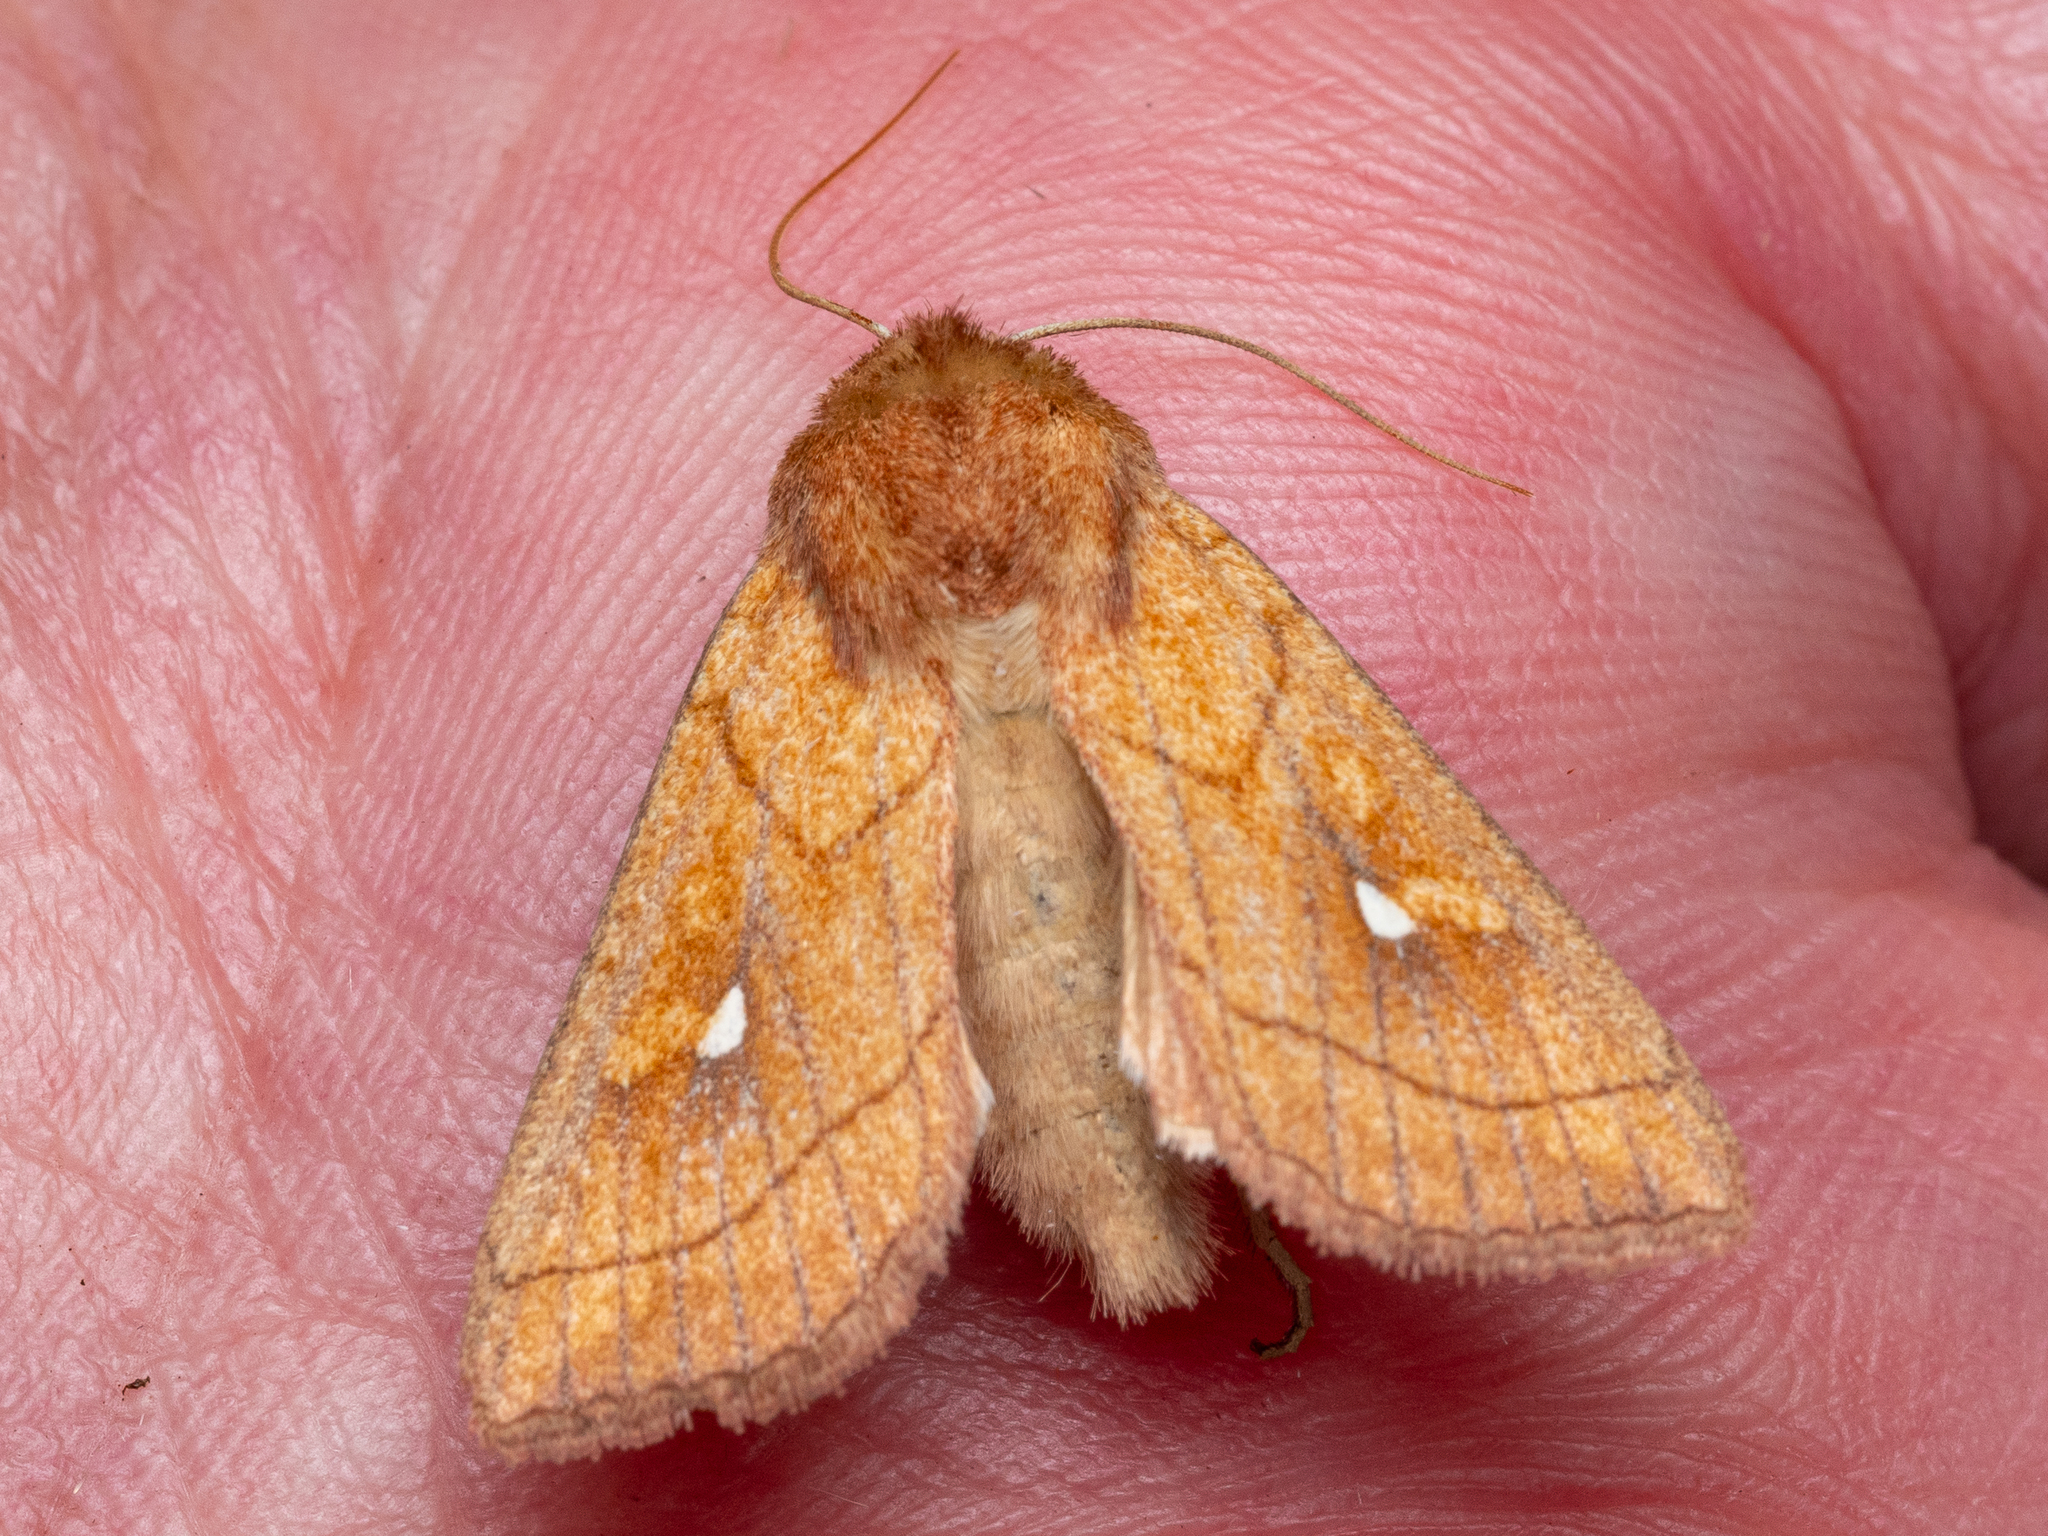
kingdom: Animalia
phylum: Arthropoda
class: Insecta
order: Lepidoptera
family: Noctuidae
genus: Mythimna
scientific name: Mythimna conigera
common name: Brown-line bright-eye
